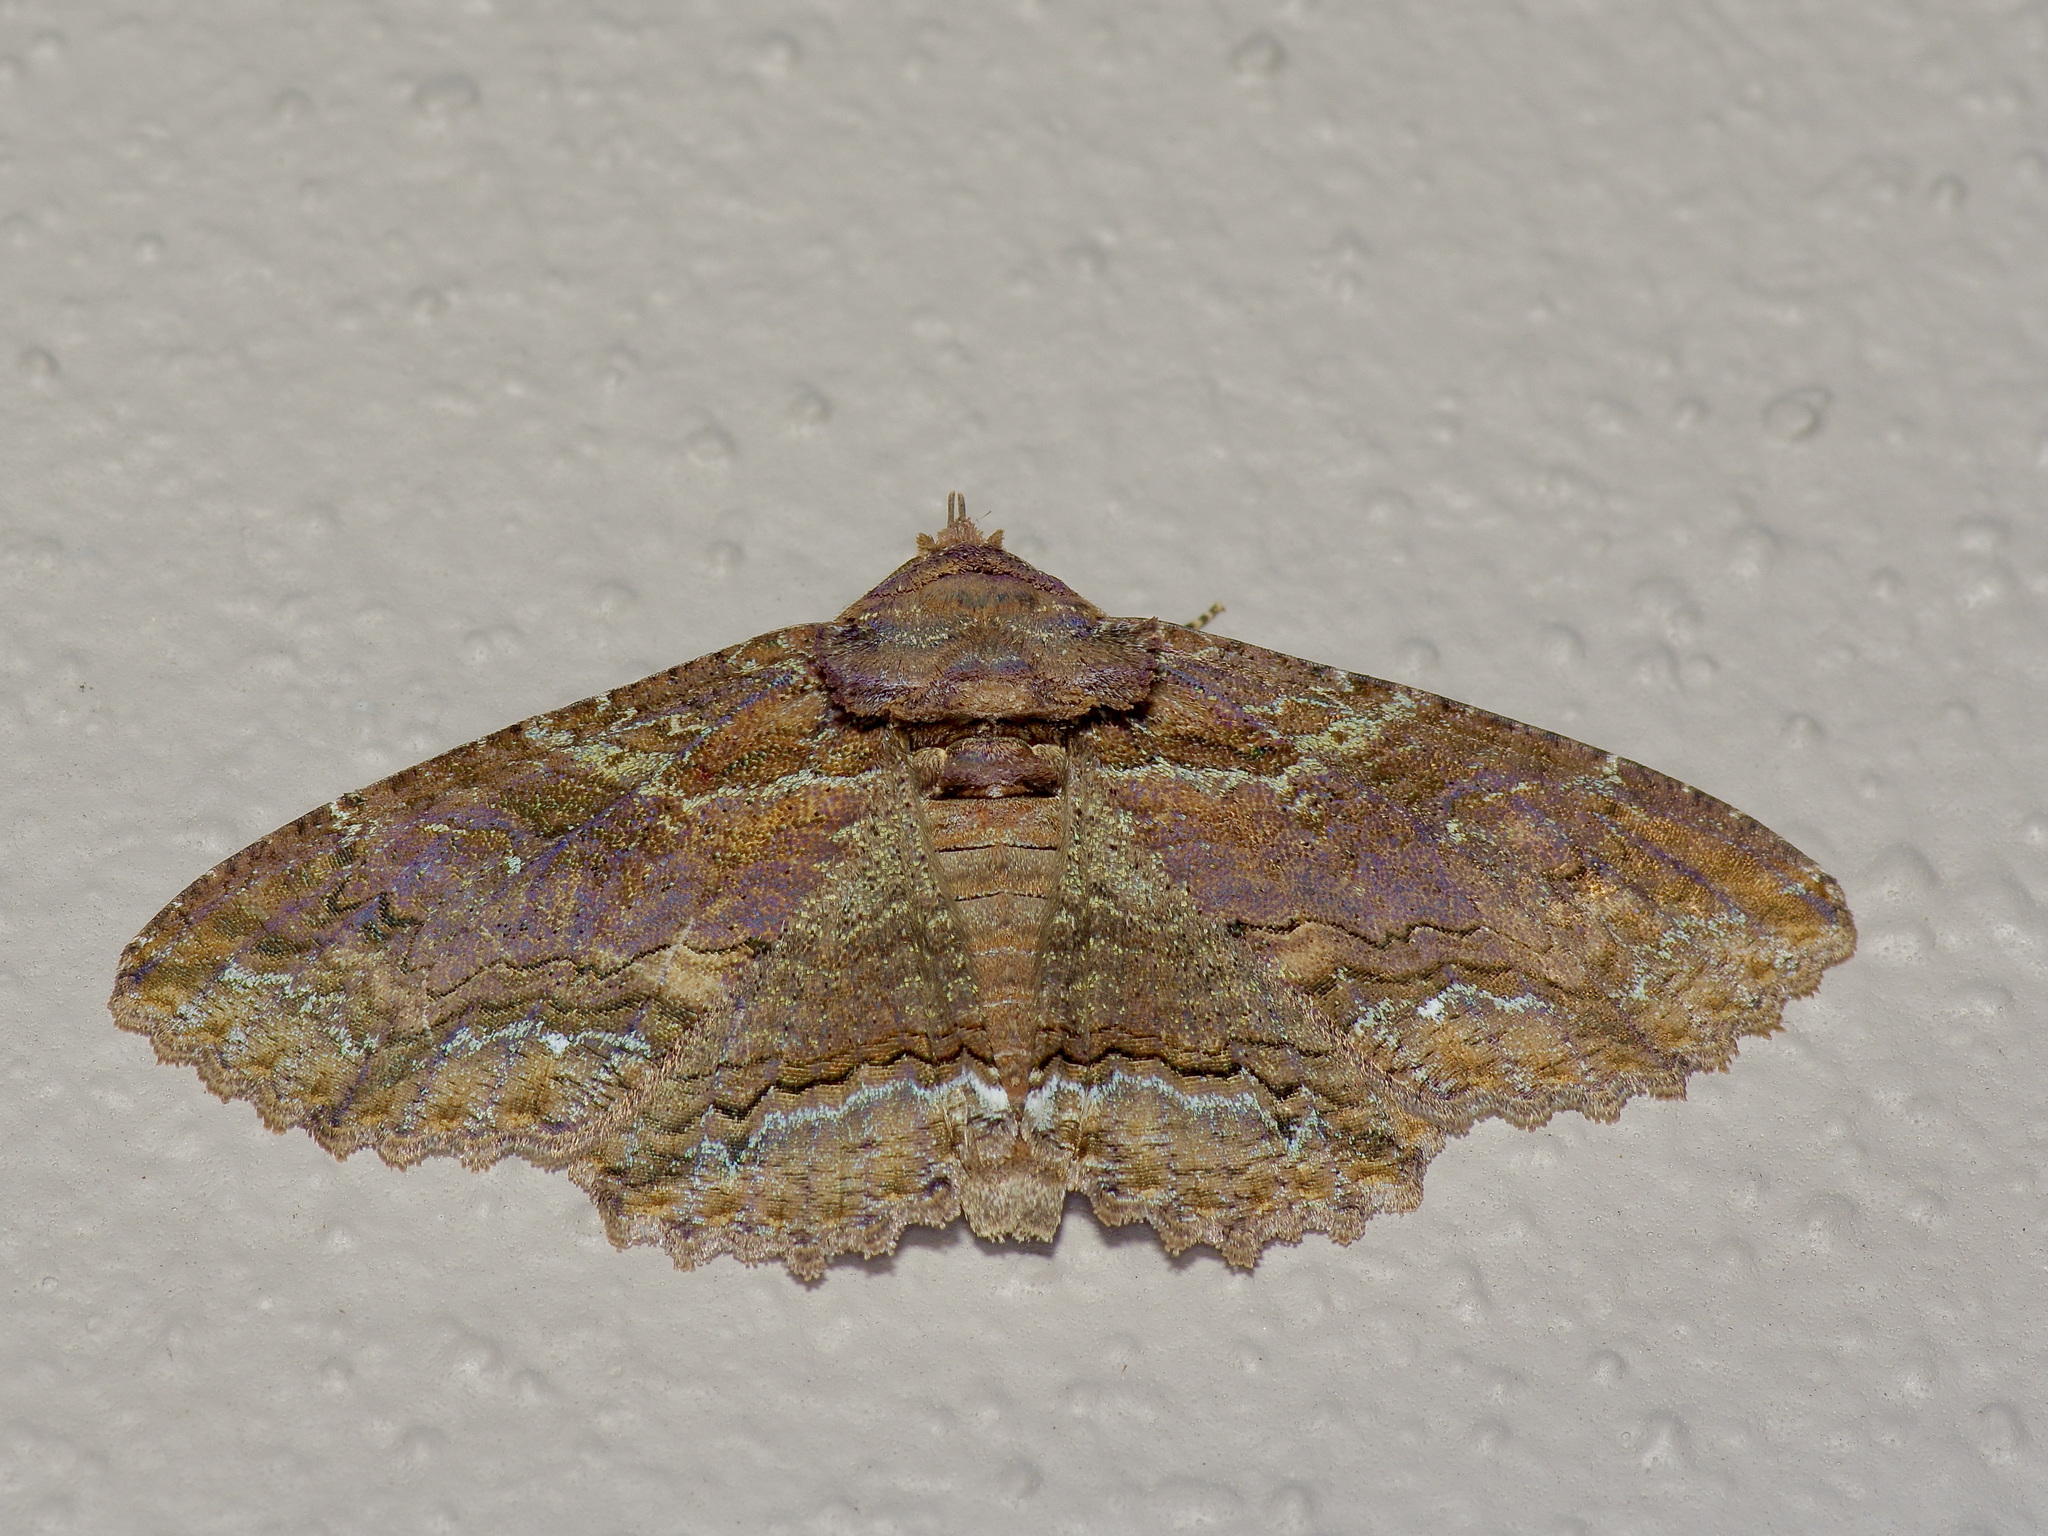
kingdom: Animalia
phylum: Arthropoda
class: Insecta
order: Lepidoptera
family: Erebidae
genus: Zale
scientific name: Zale lunata
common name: Lunate zale moth
